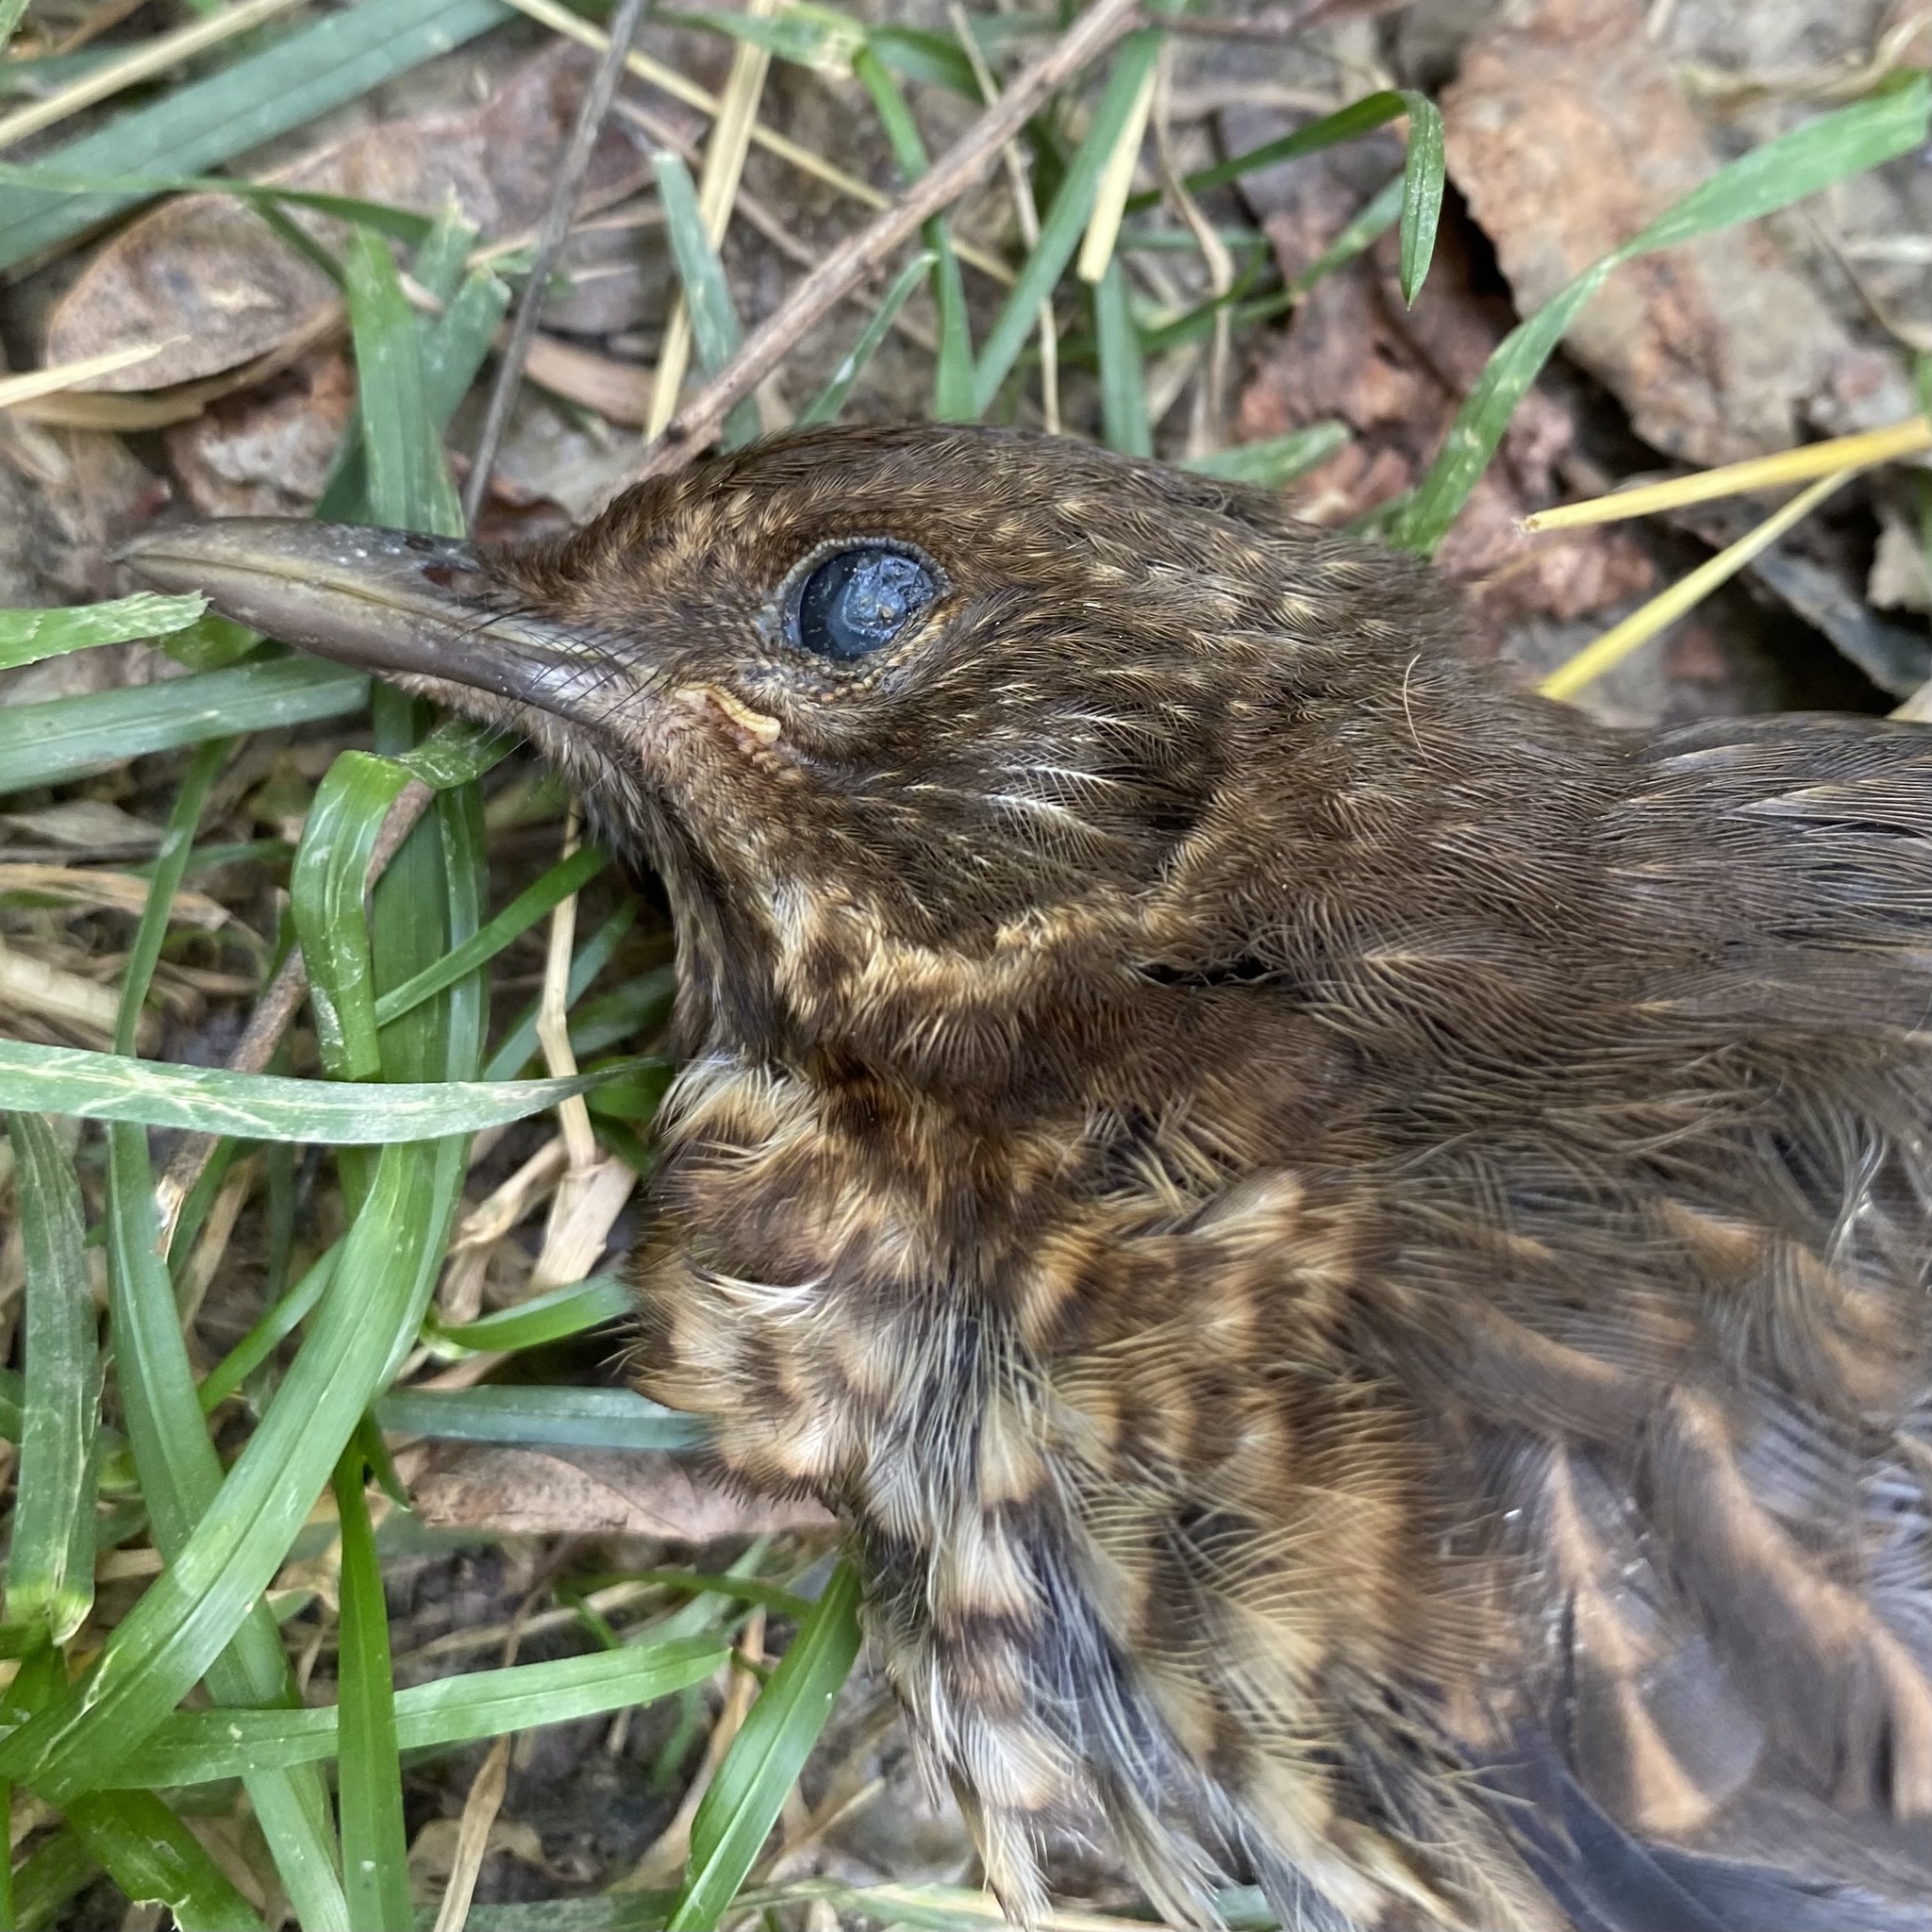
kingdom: Animalia
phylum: Chordata
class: Aves
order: Passeriformes
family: Turdidae
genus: Turdus
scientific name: Turdus merula
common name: Common blackbird
